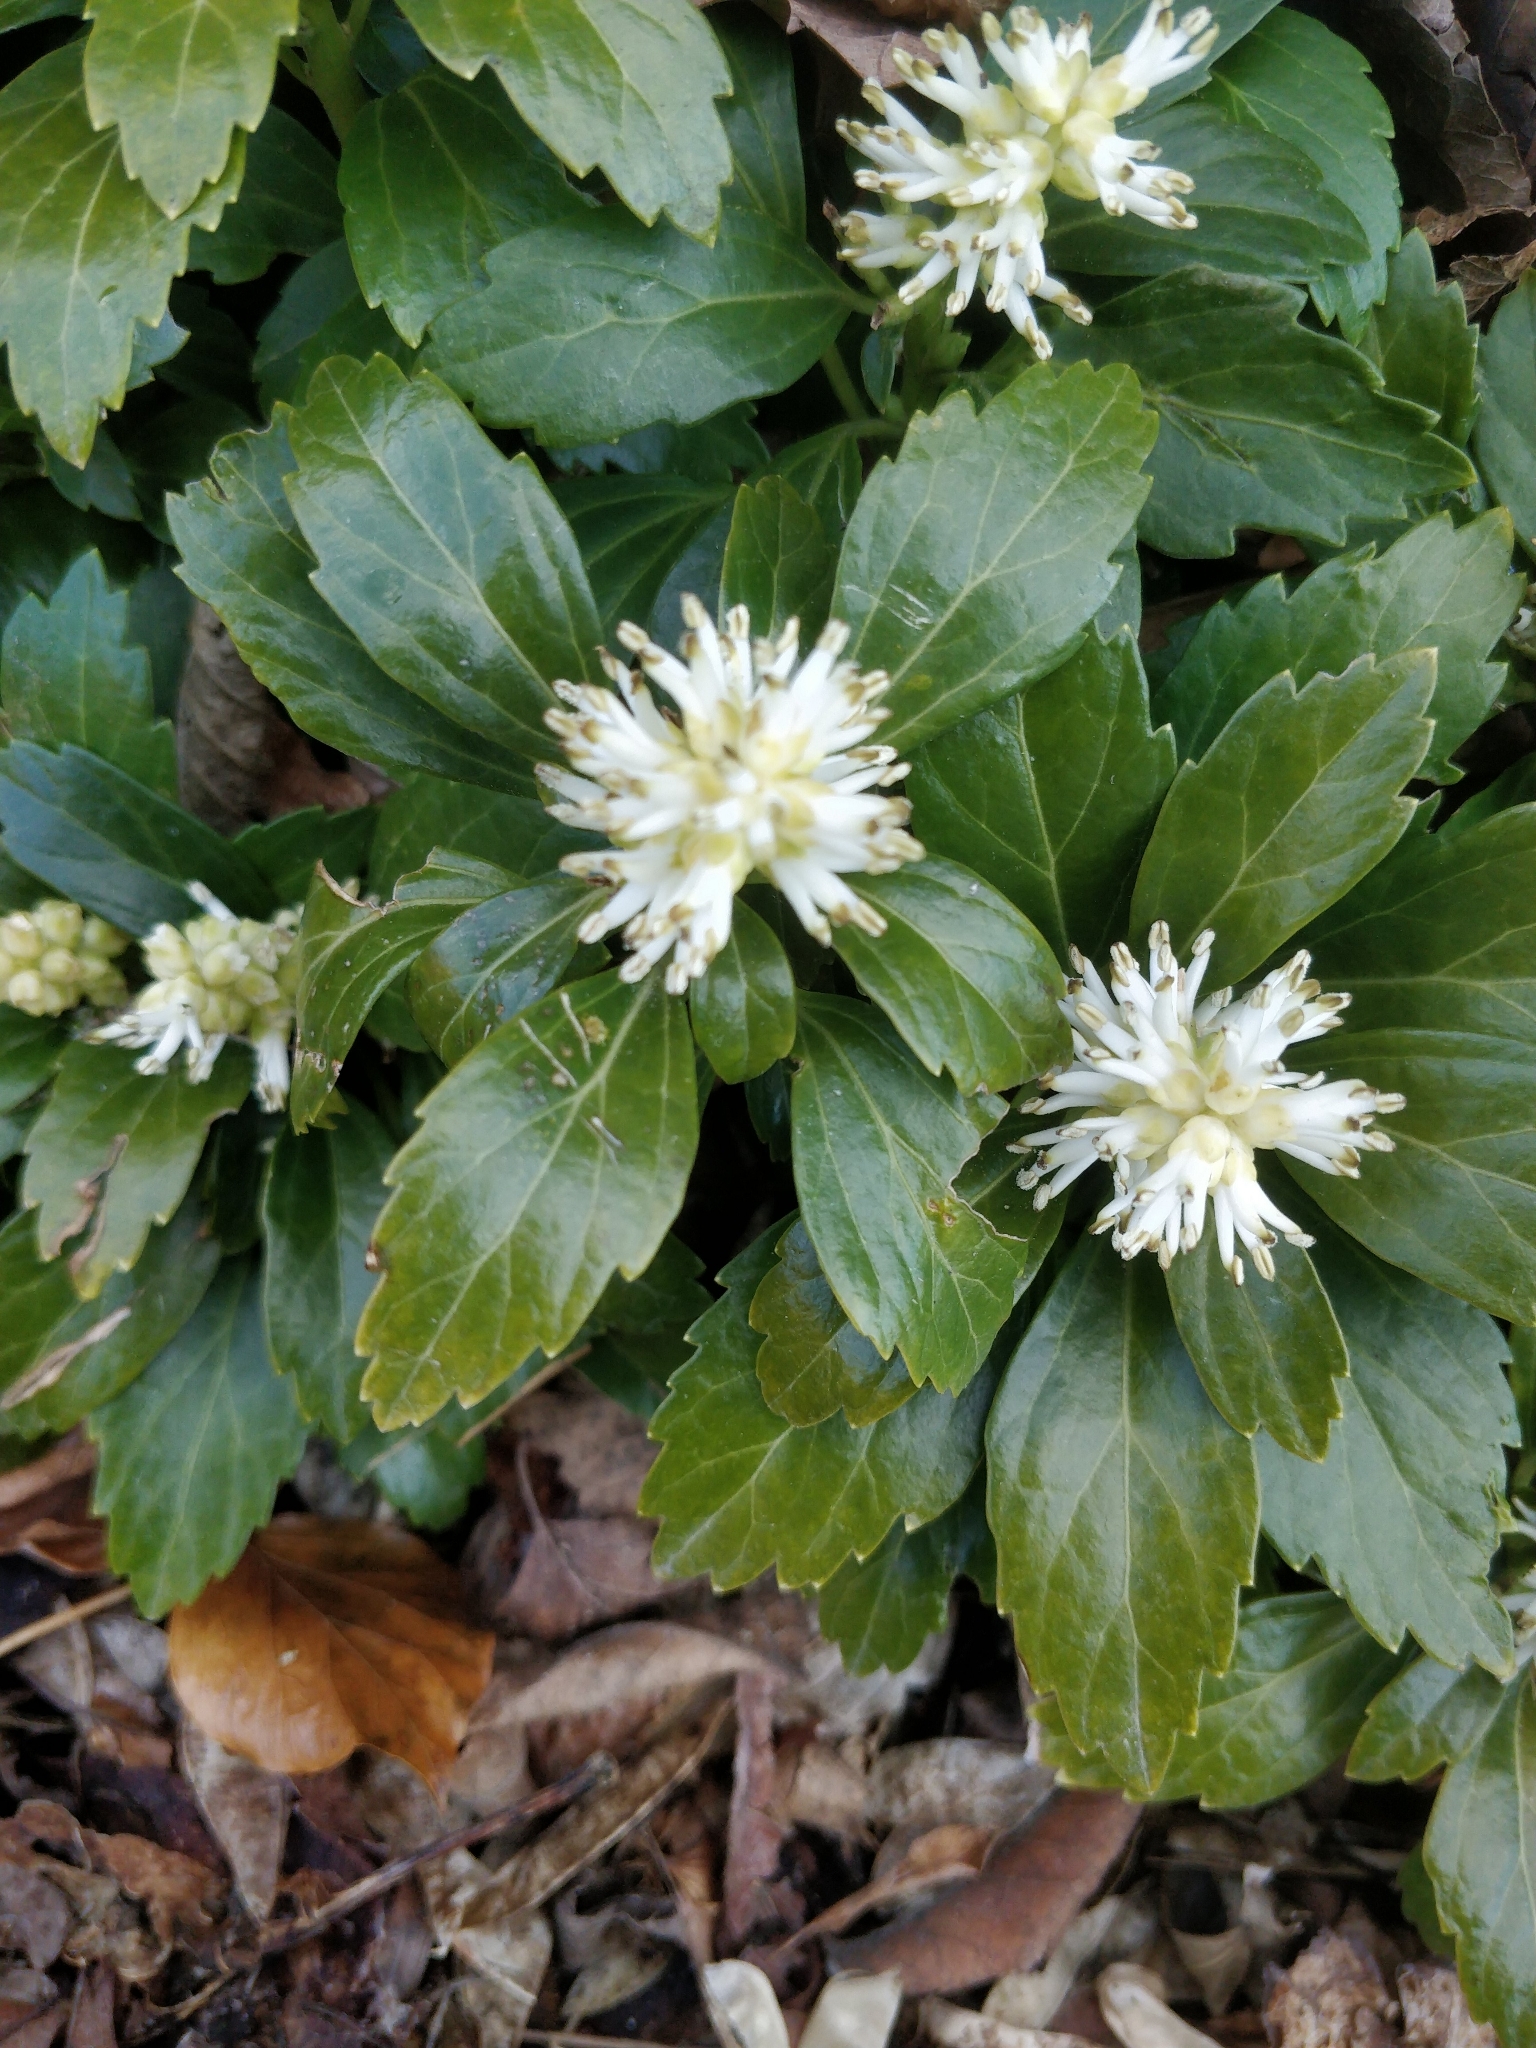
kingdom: Plantae
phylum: Tracheophyta
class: Magnoliopsida
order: Buxales
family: Buxaceae
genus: Pachysandra
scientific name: Pachysandra terminalis
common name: Japanese pachysandra
